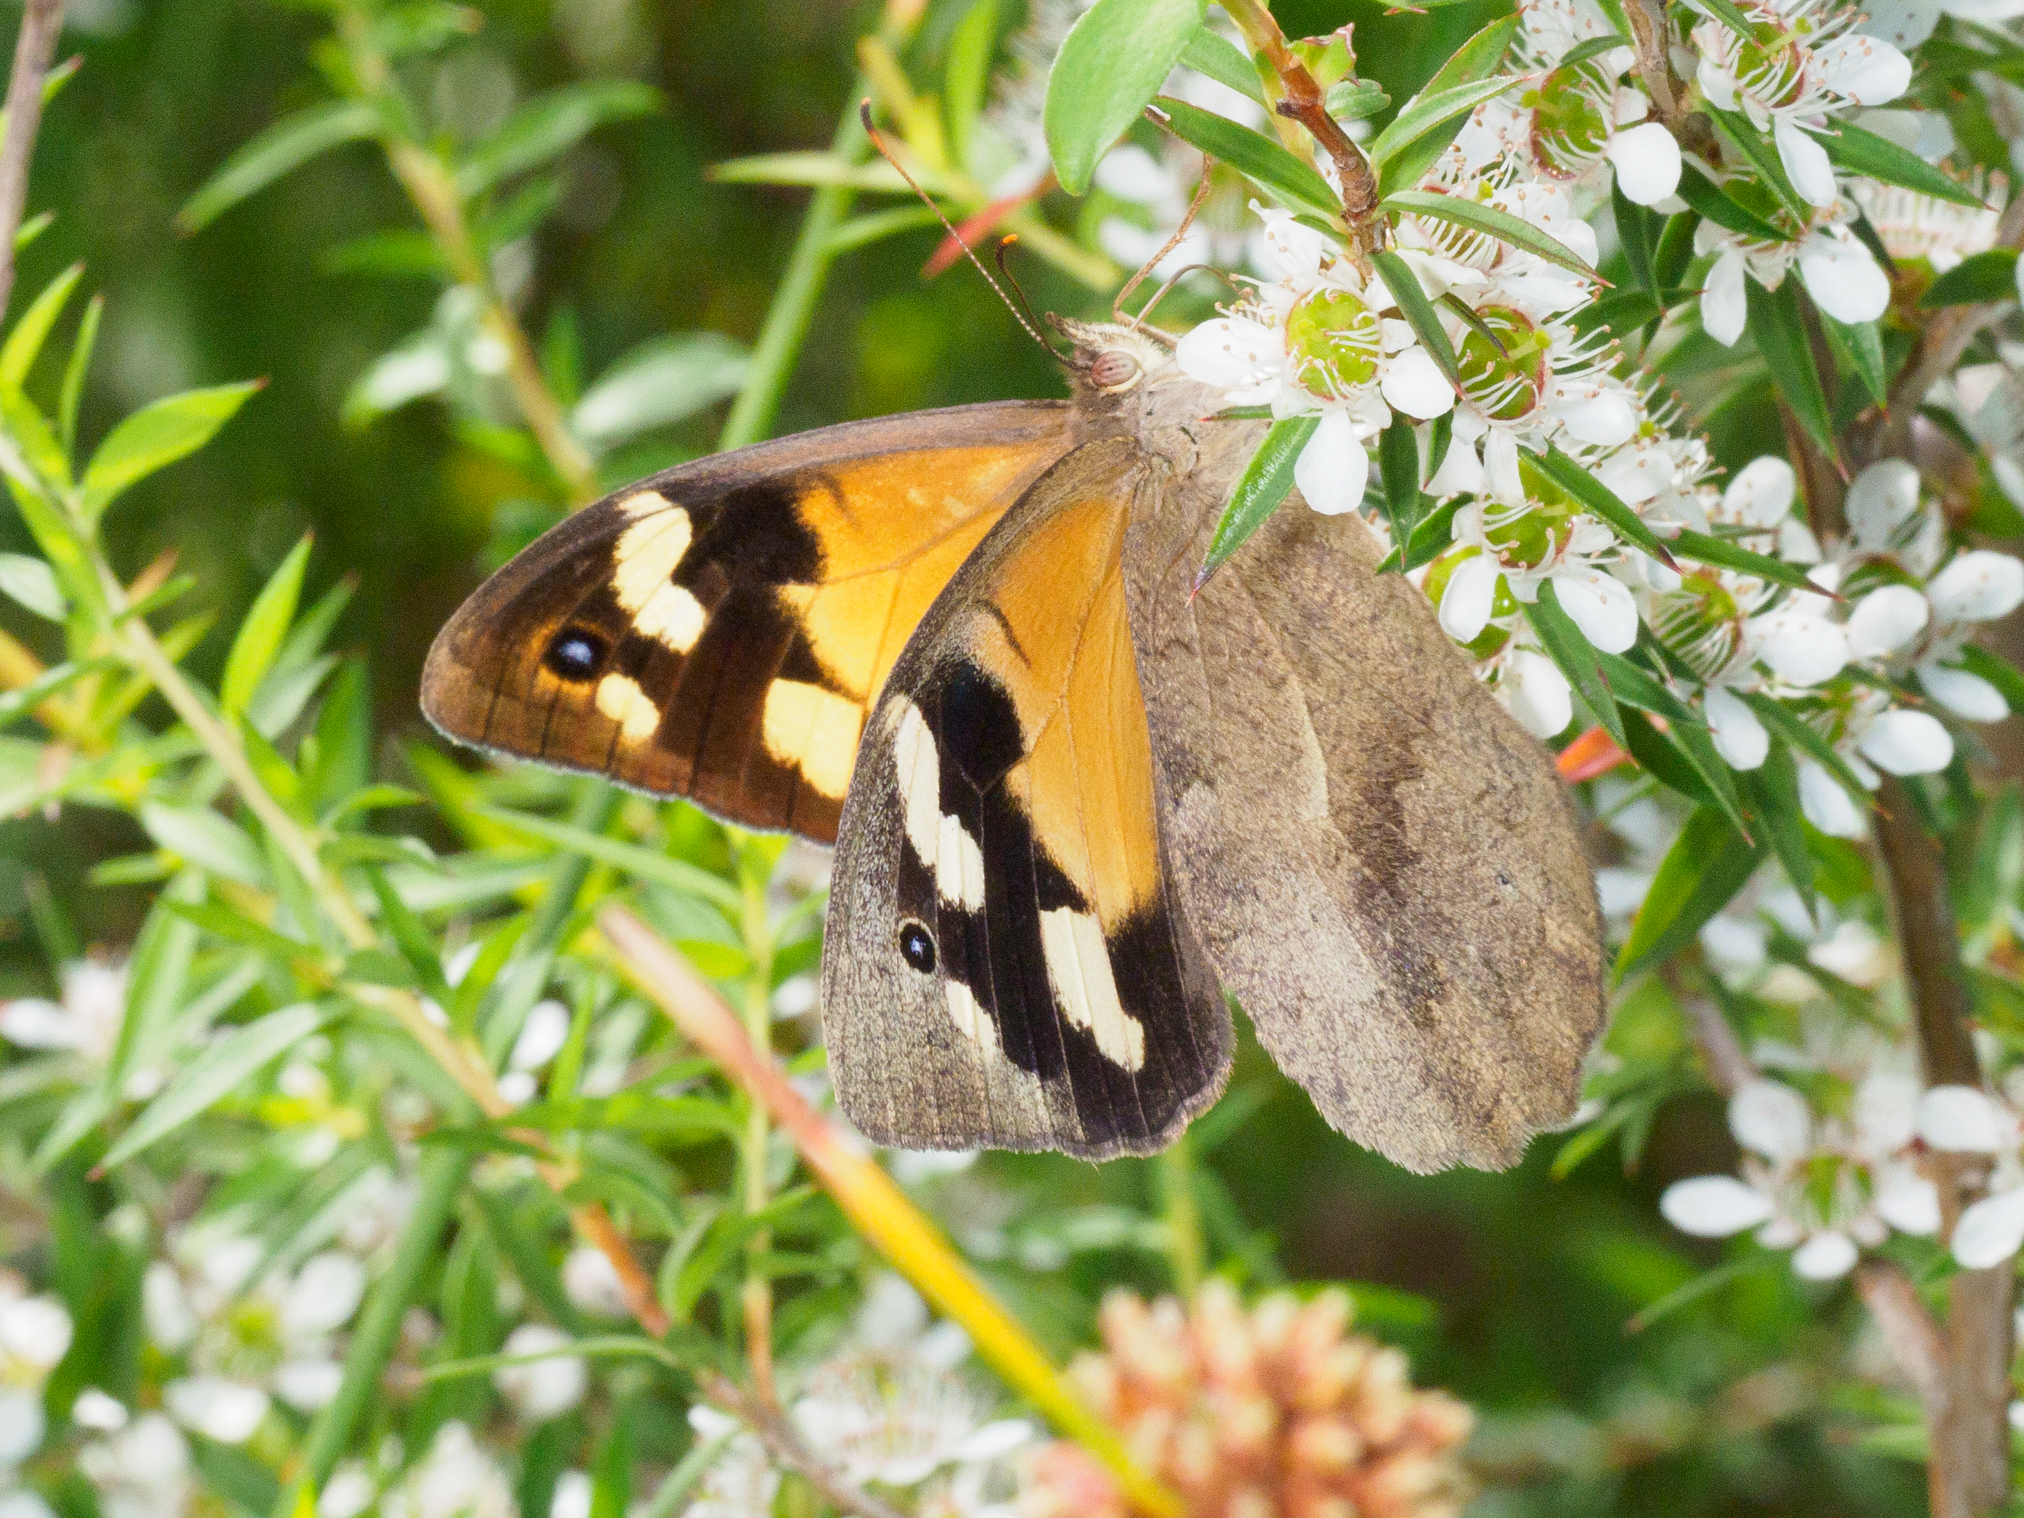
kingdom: Animalia
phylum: Arthropoda
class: Insecta
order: Lepidoptera
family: Nymphalidae
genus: Heteronympha
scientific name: Heteronympha merope
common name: Common brown
